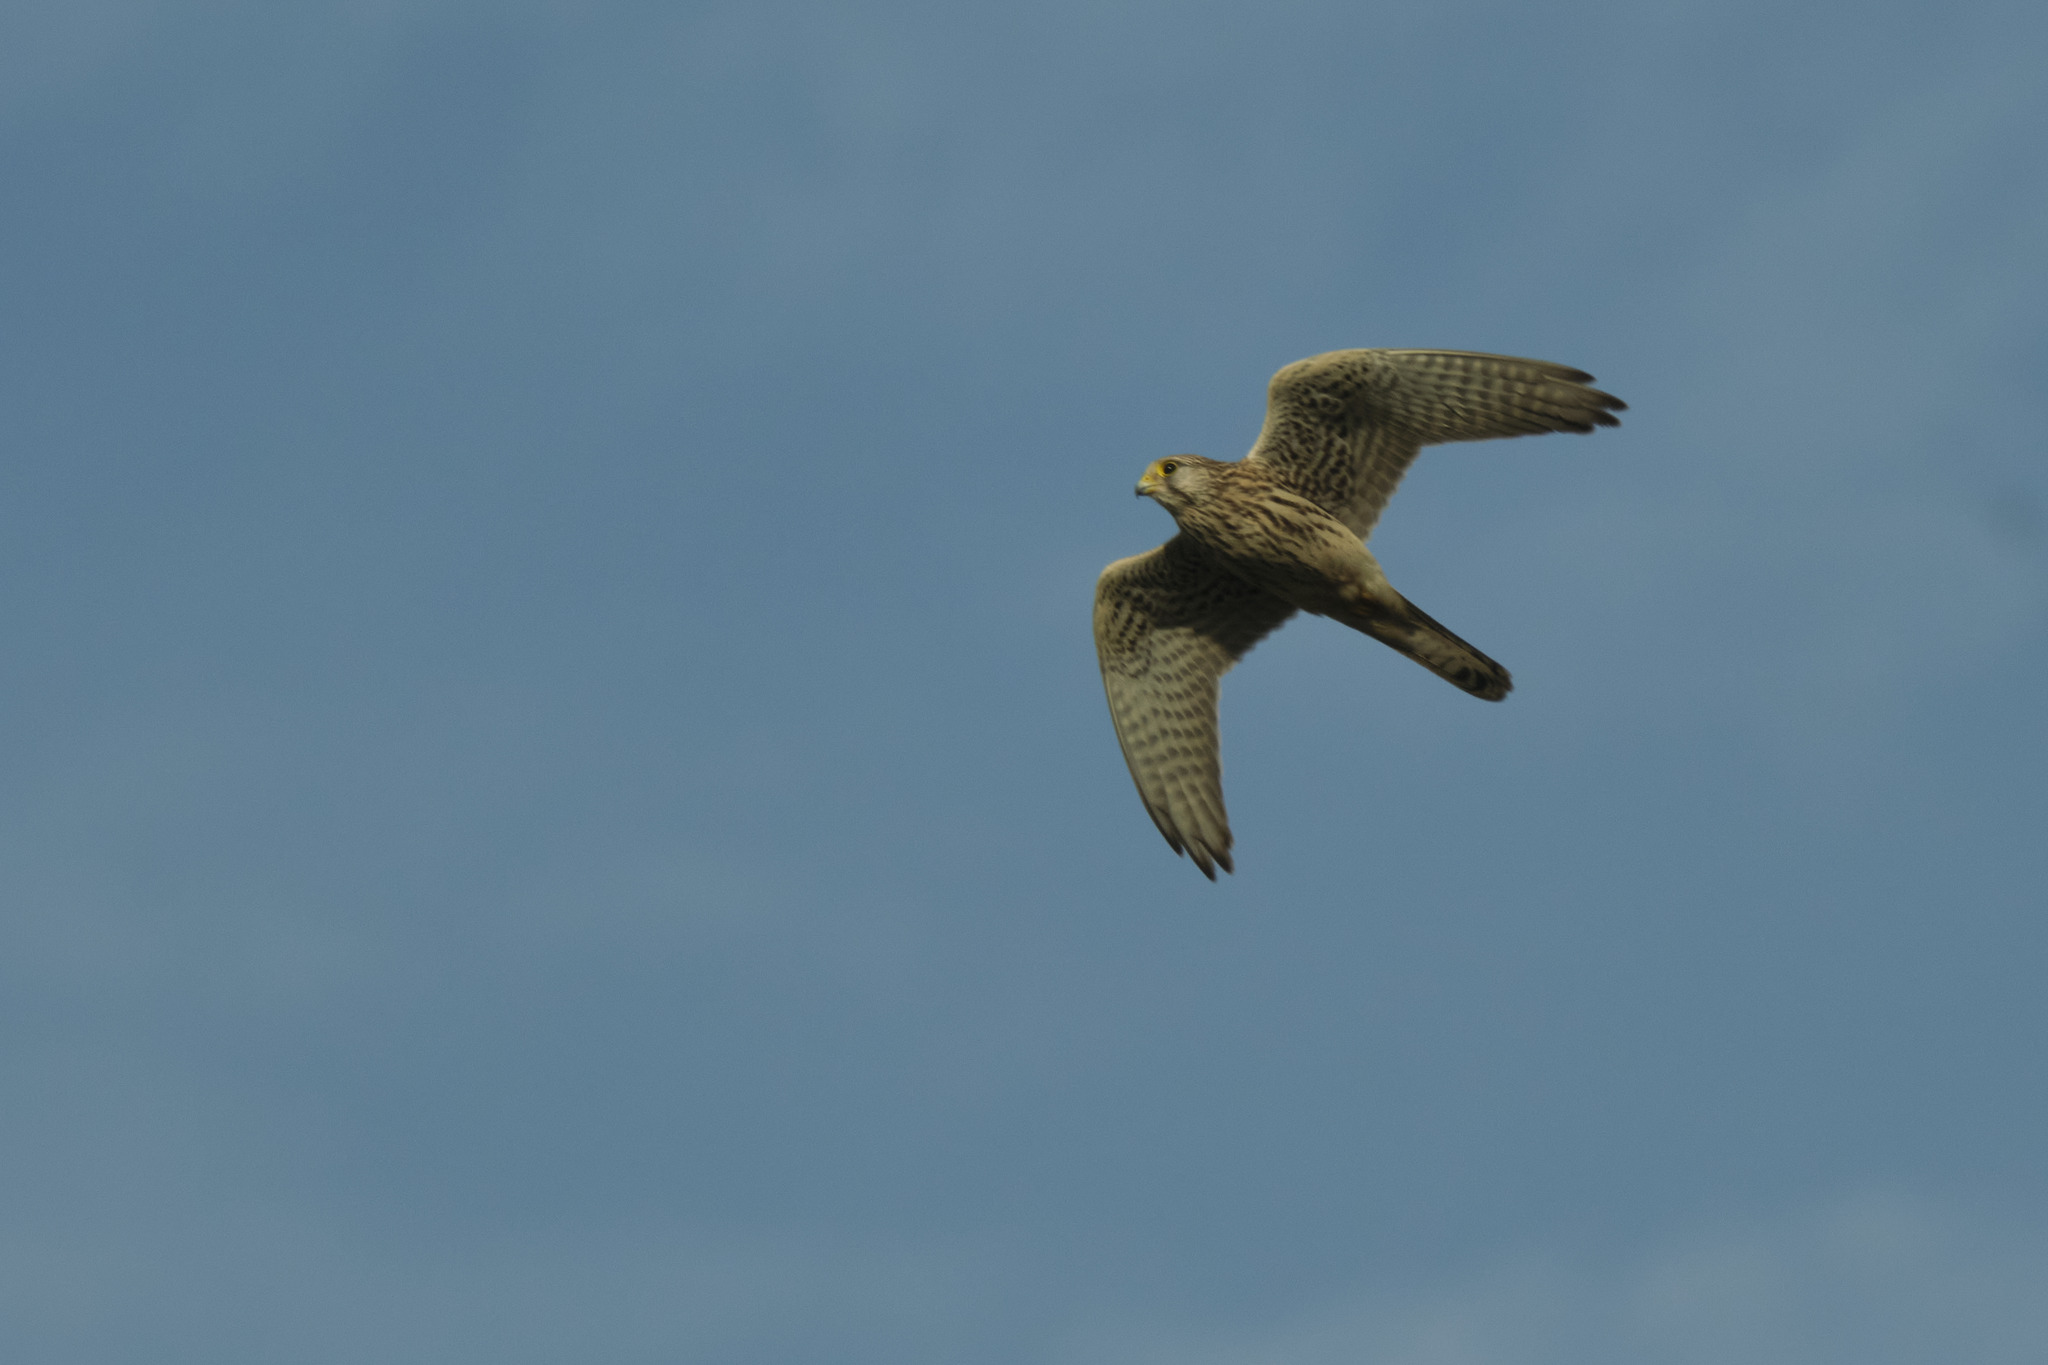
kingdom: Animalia
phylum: Chordata
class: Aves
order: Falconiformes
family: Falconidae
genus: Falco
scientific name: Falco tinnunculus
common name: Common kestrel
